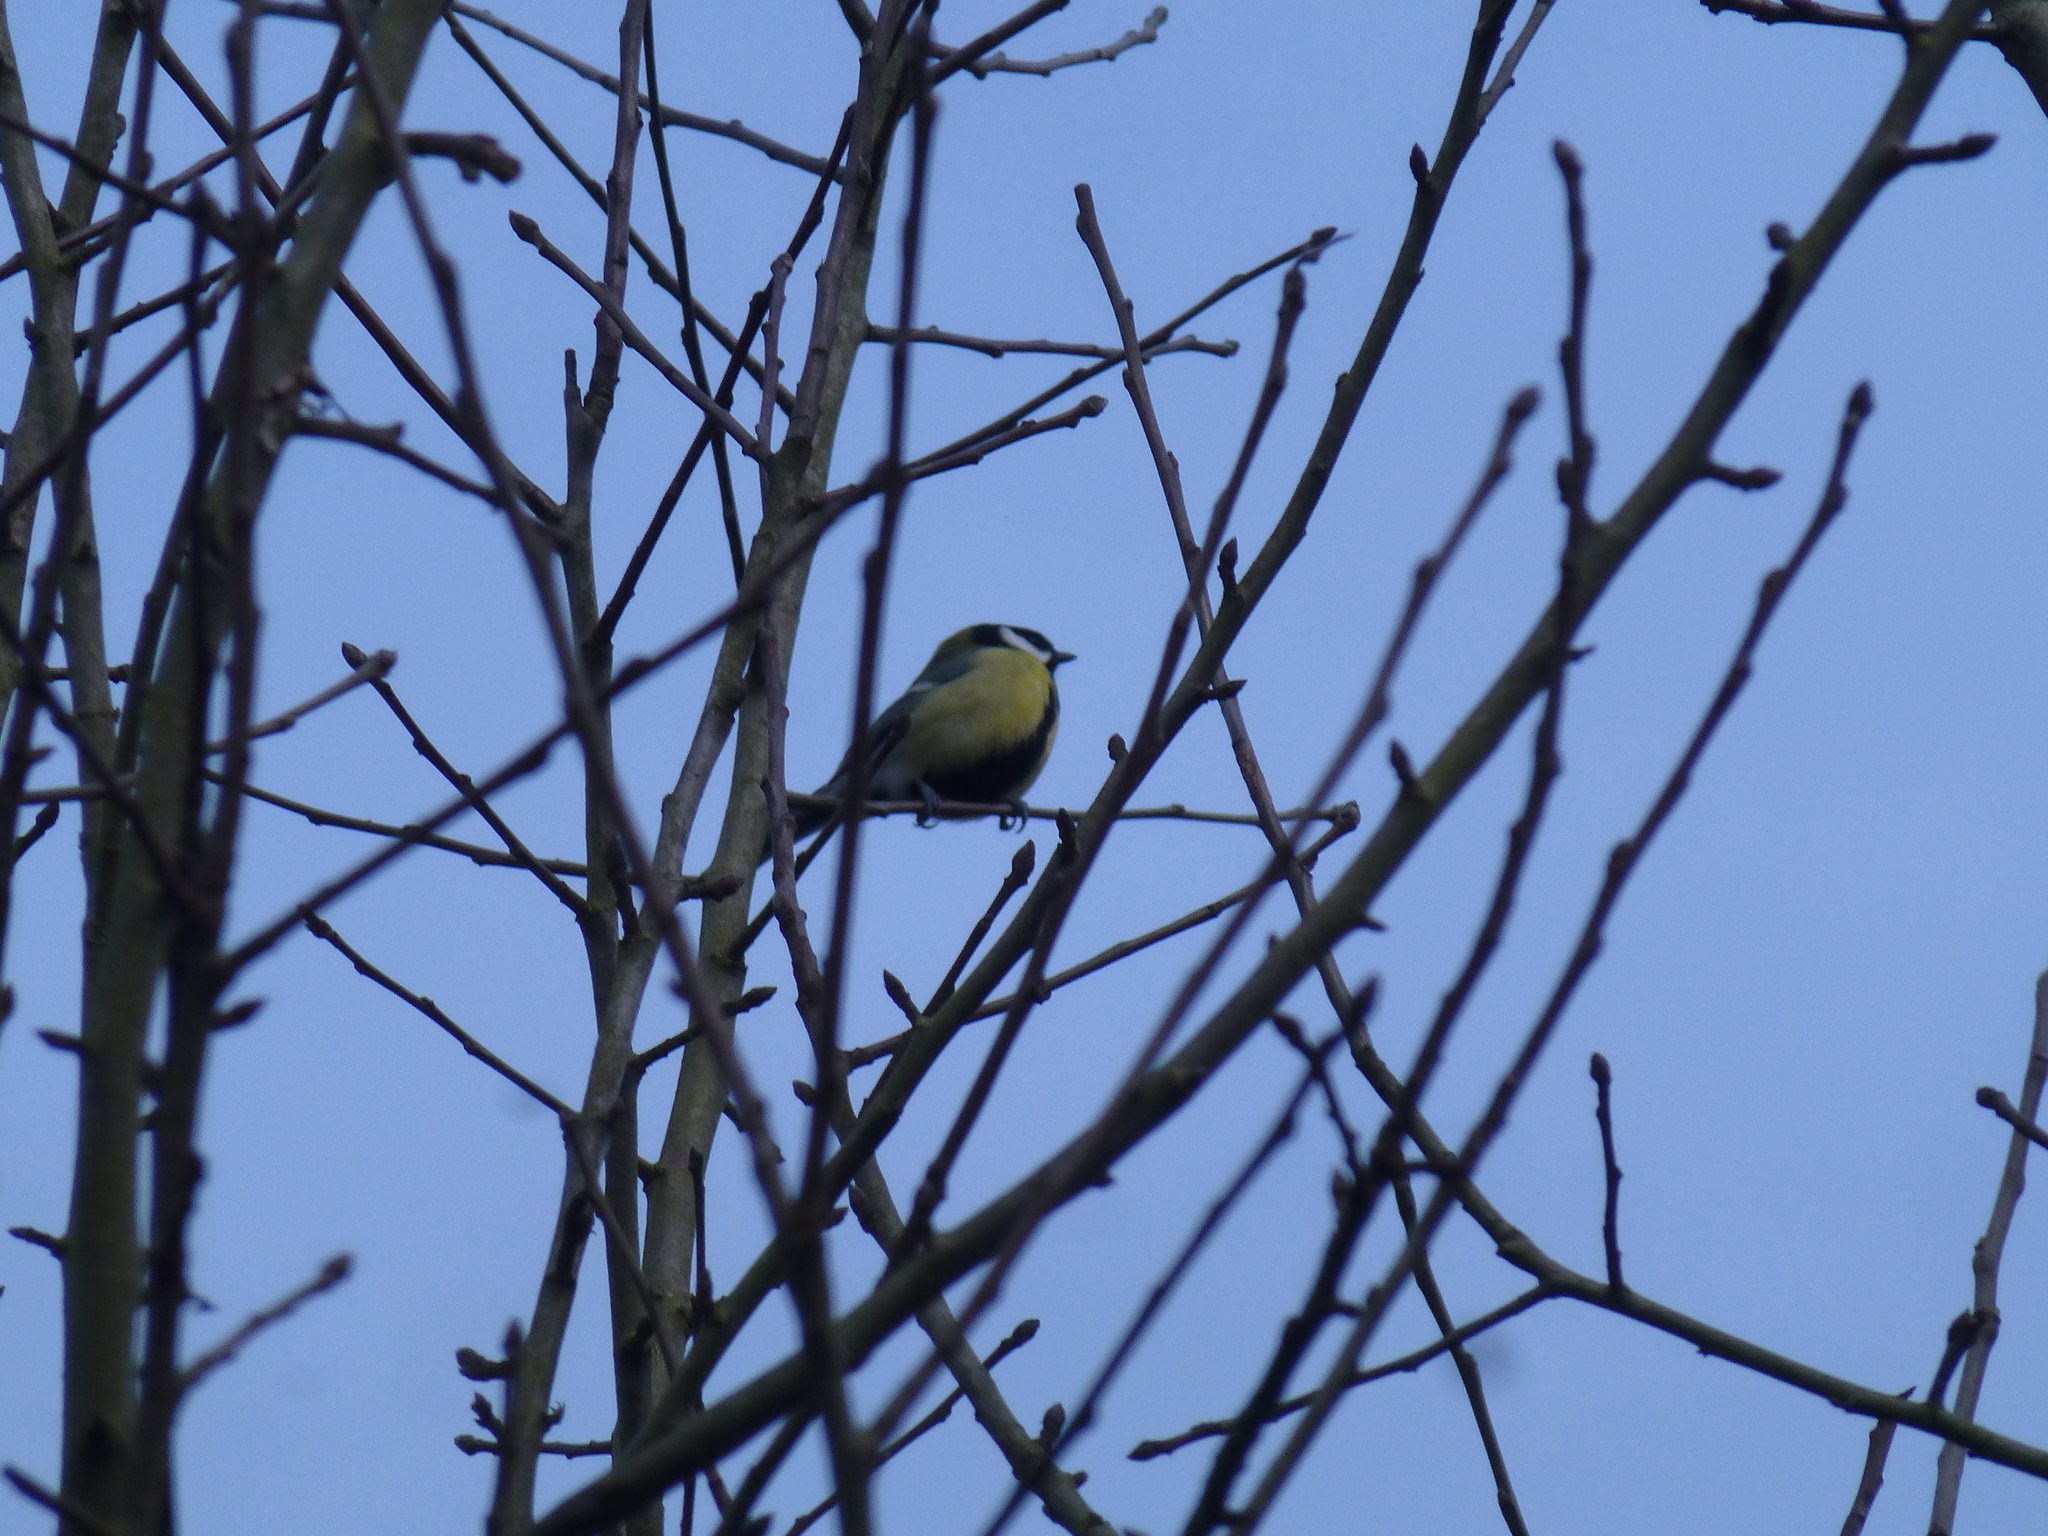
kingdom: Animalia
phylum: Chordata
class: Aves
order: Passeriformes
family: Paridae
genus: Parus
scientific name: Parus major
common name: Great tit
